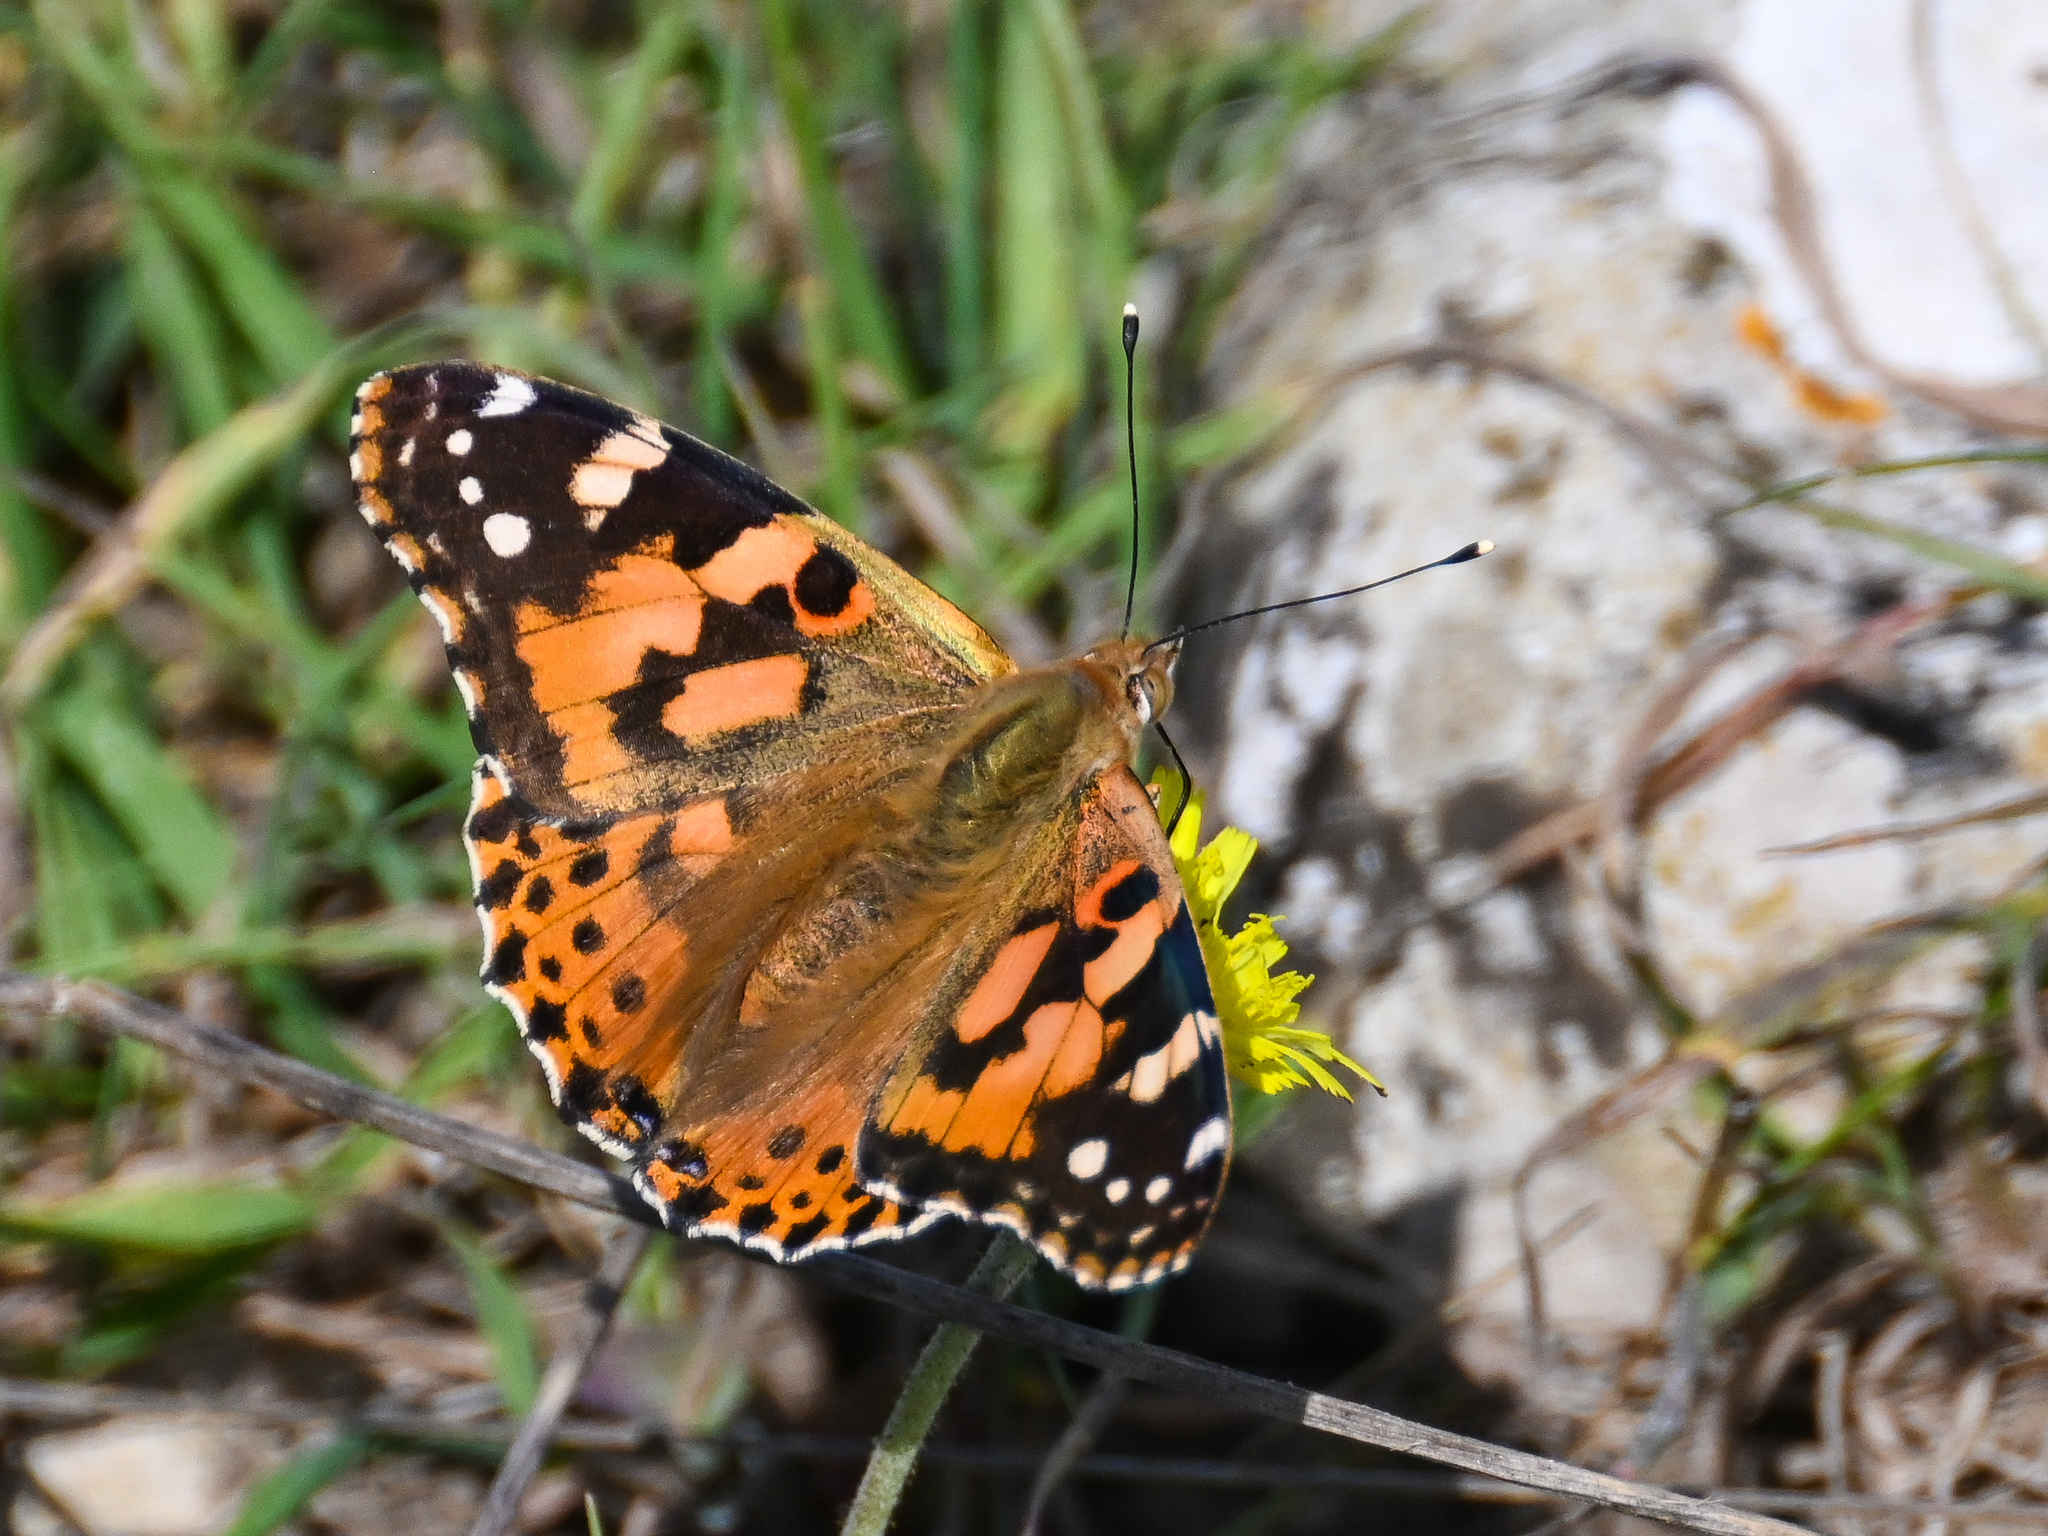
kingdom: Animalia
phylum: Arthropoda
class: Insecta
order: Lepidoptera
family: Nymphalidae
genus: Vanessa
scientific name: Vanessa cardui
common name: Painted lady
